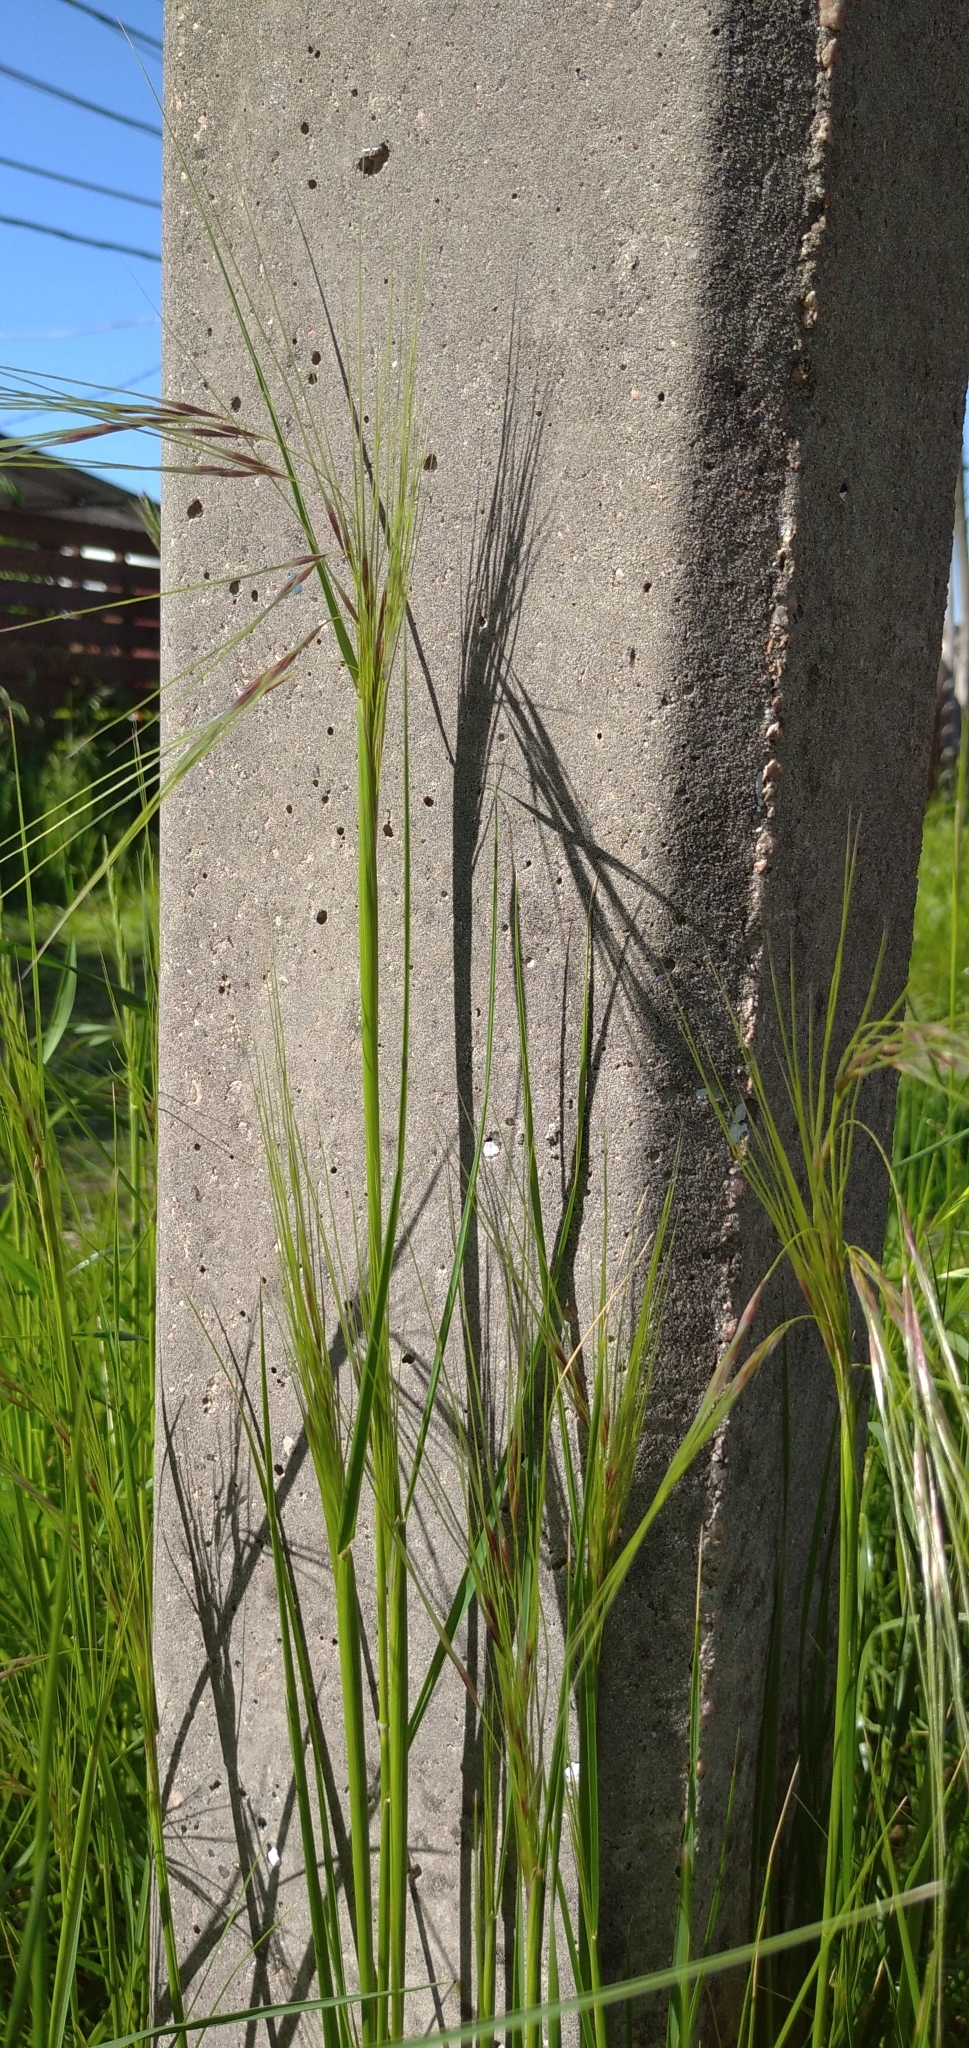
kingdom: Plantae
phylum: Tracheophyta
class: Liliopsida
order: Poales
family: Poaceae
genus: Nassella
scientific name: Nassella neesiana
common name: American needle-grass
